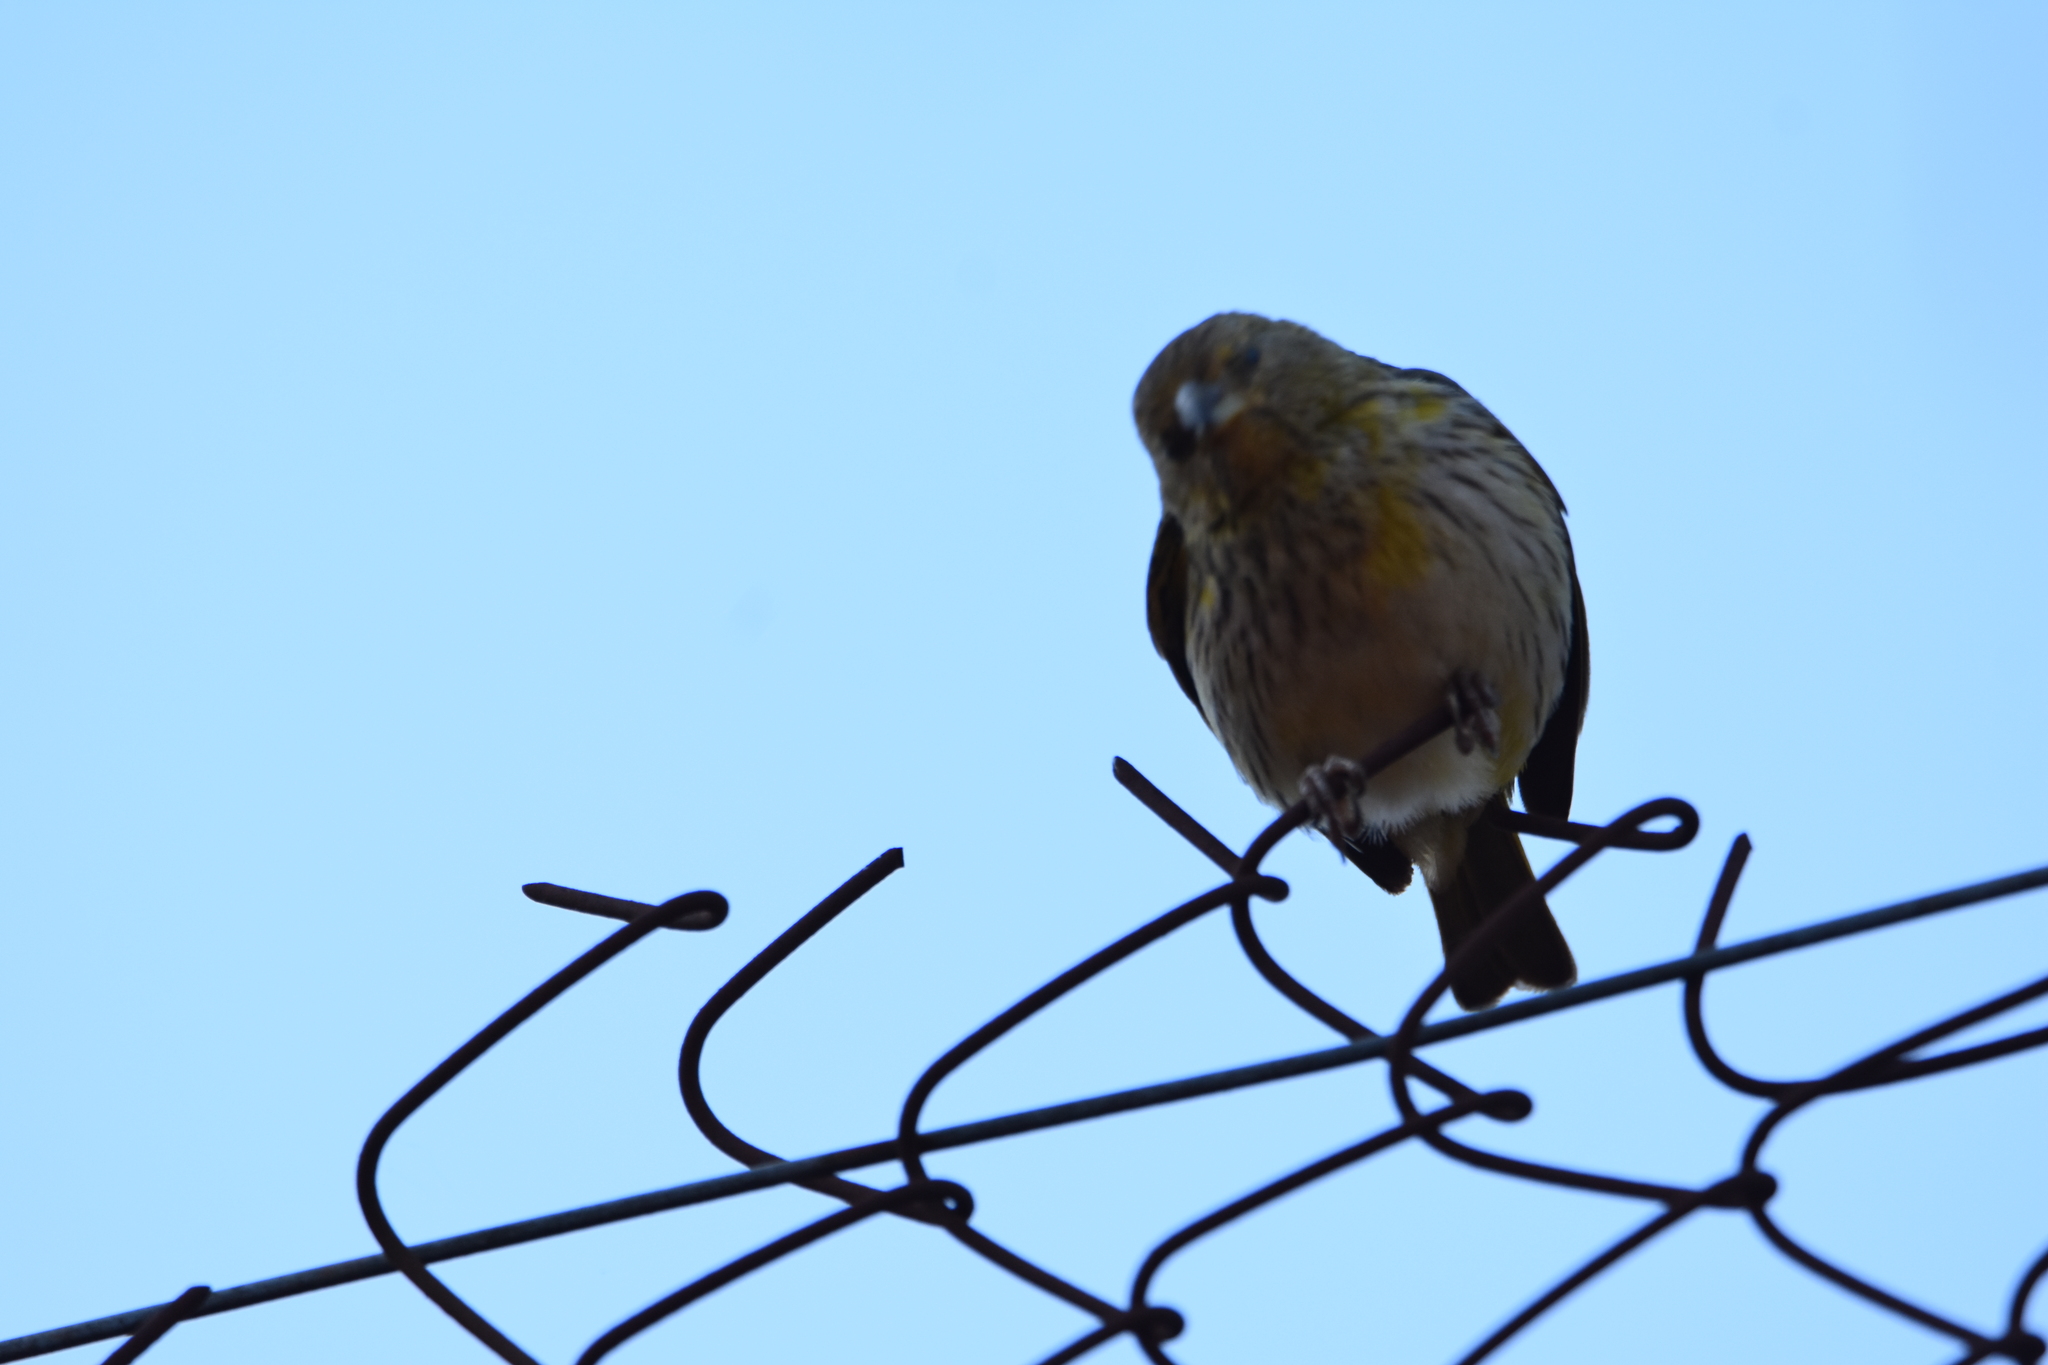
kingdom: Animalia
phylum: Chordata
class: Aves
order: Passeriformes
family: Thraupidae
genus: Sicalis
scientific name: Sicalis flaveola
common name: Saffron finch
